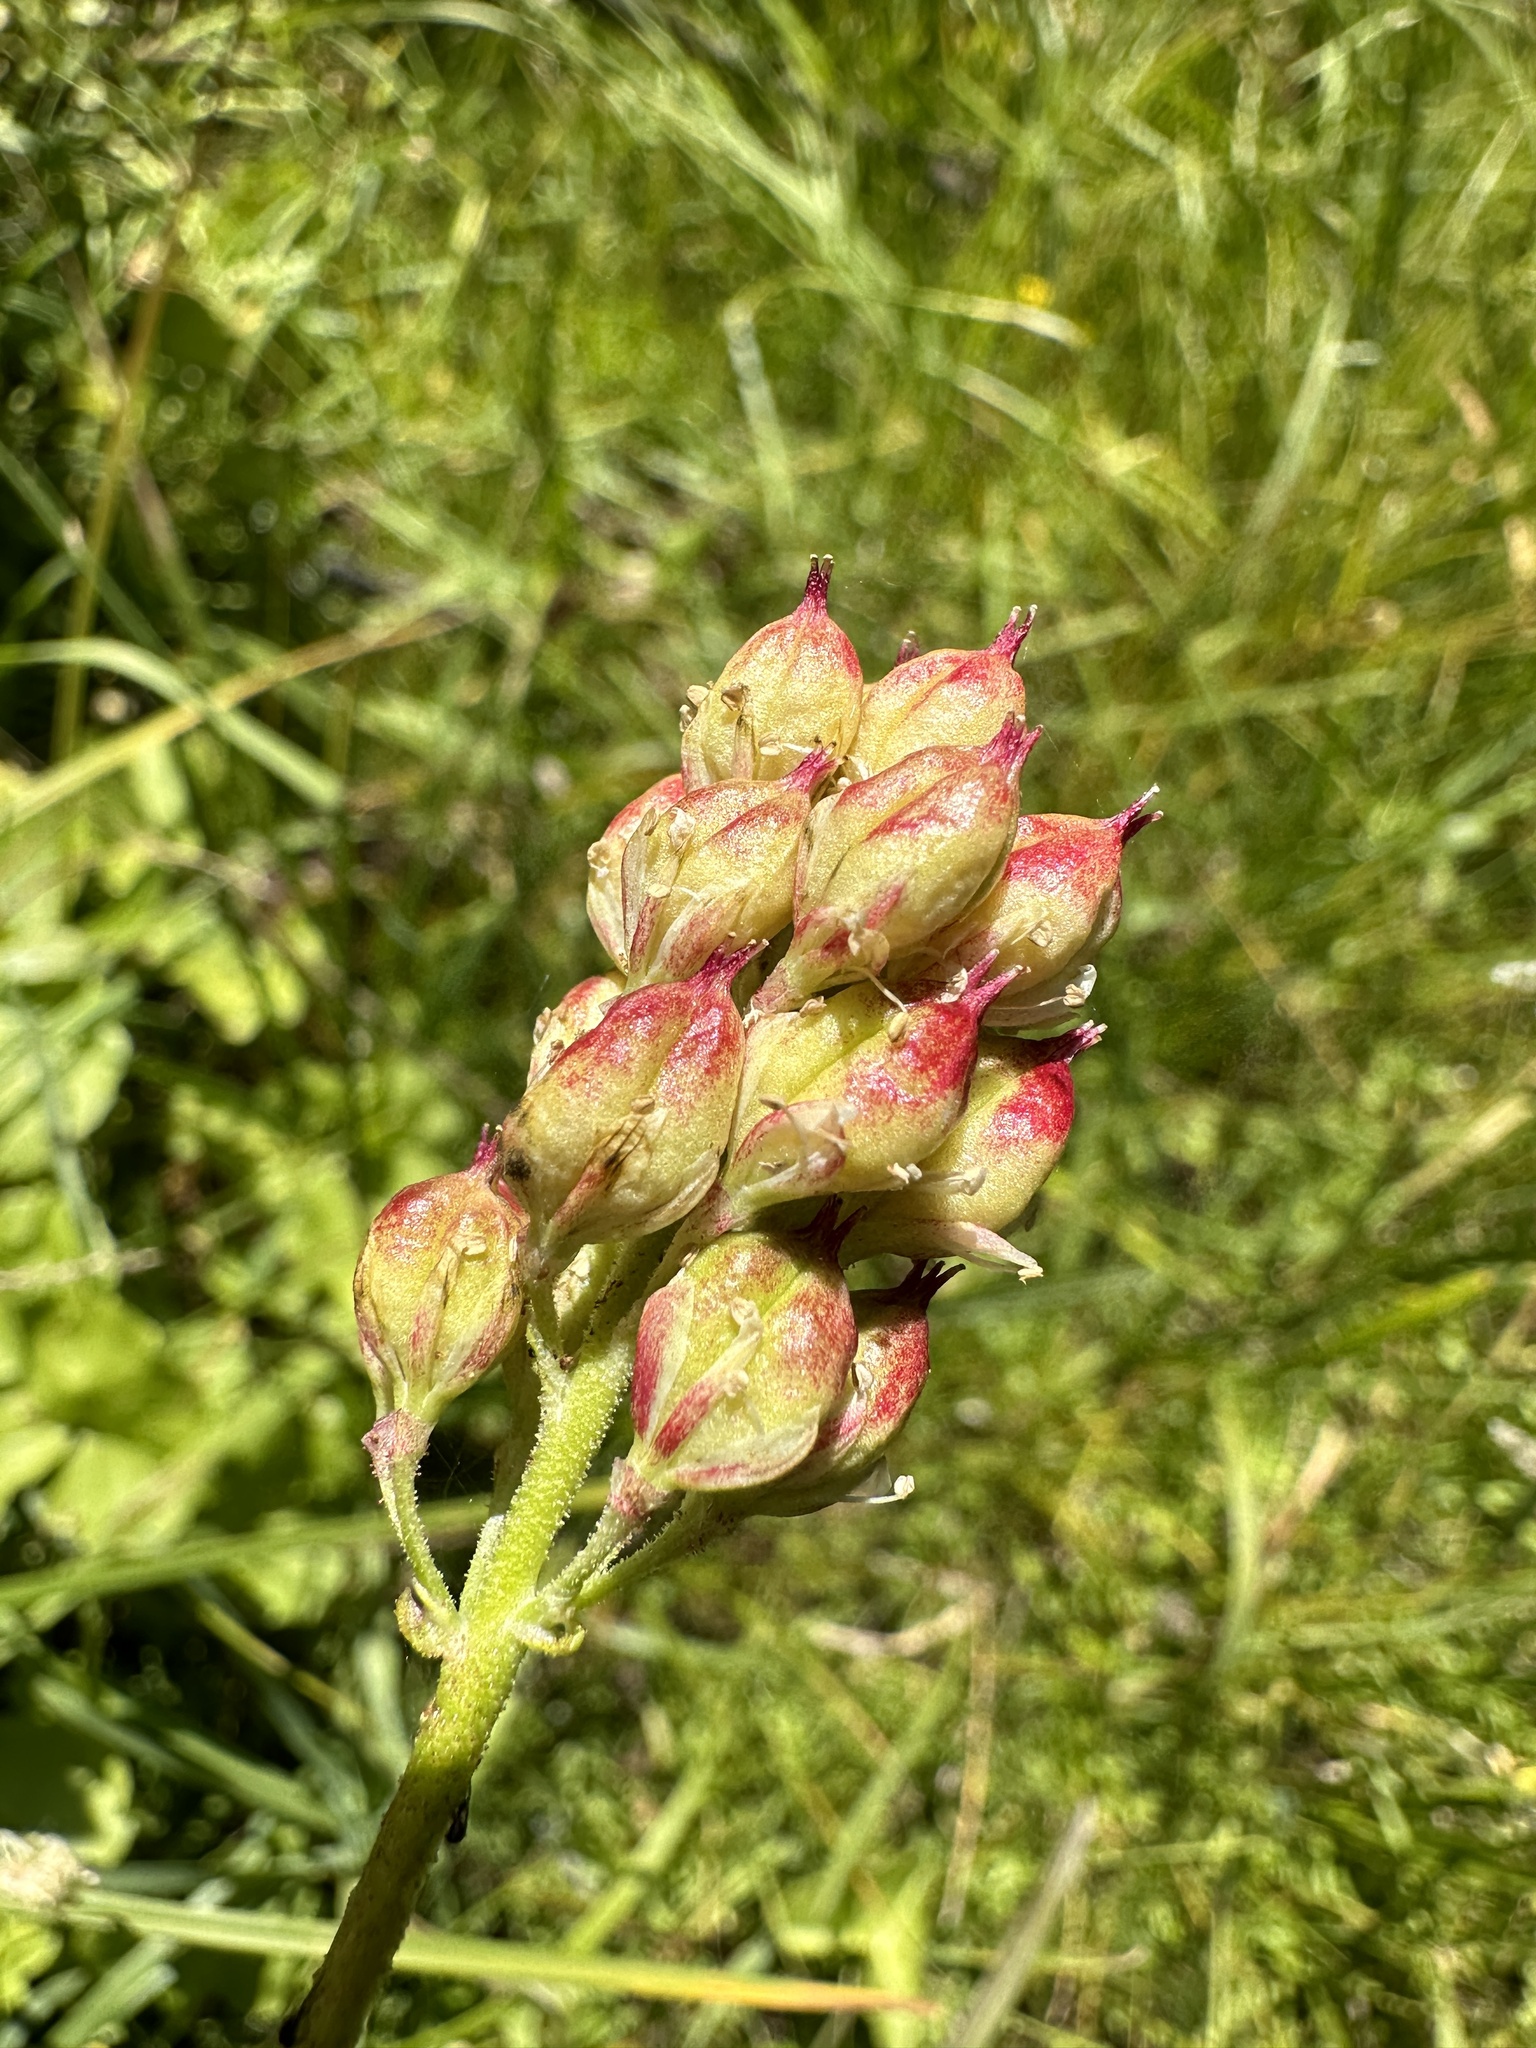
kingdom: Plantae
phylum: Tracheophyta
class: Liliopsida
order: Alismatales
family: Tofieldiaceae
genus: Triantha
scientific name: Triantha occidentalis
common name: Western false asphodel
